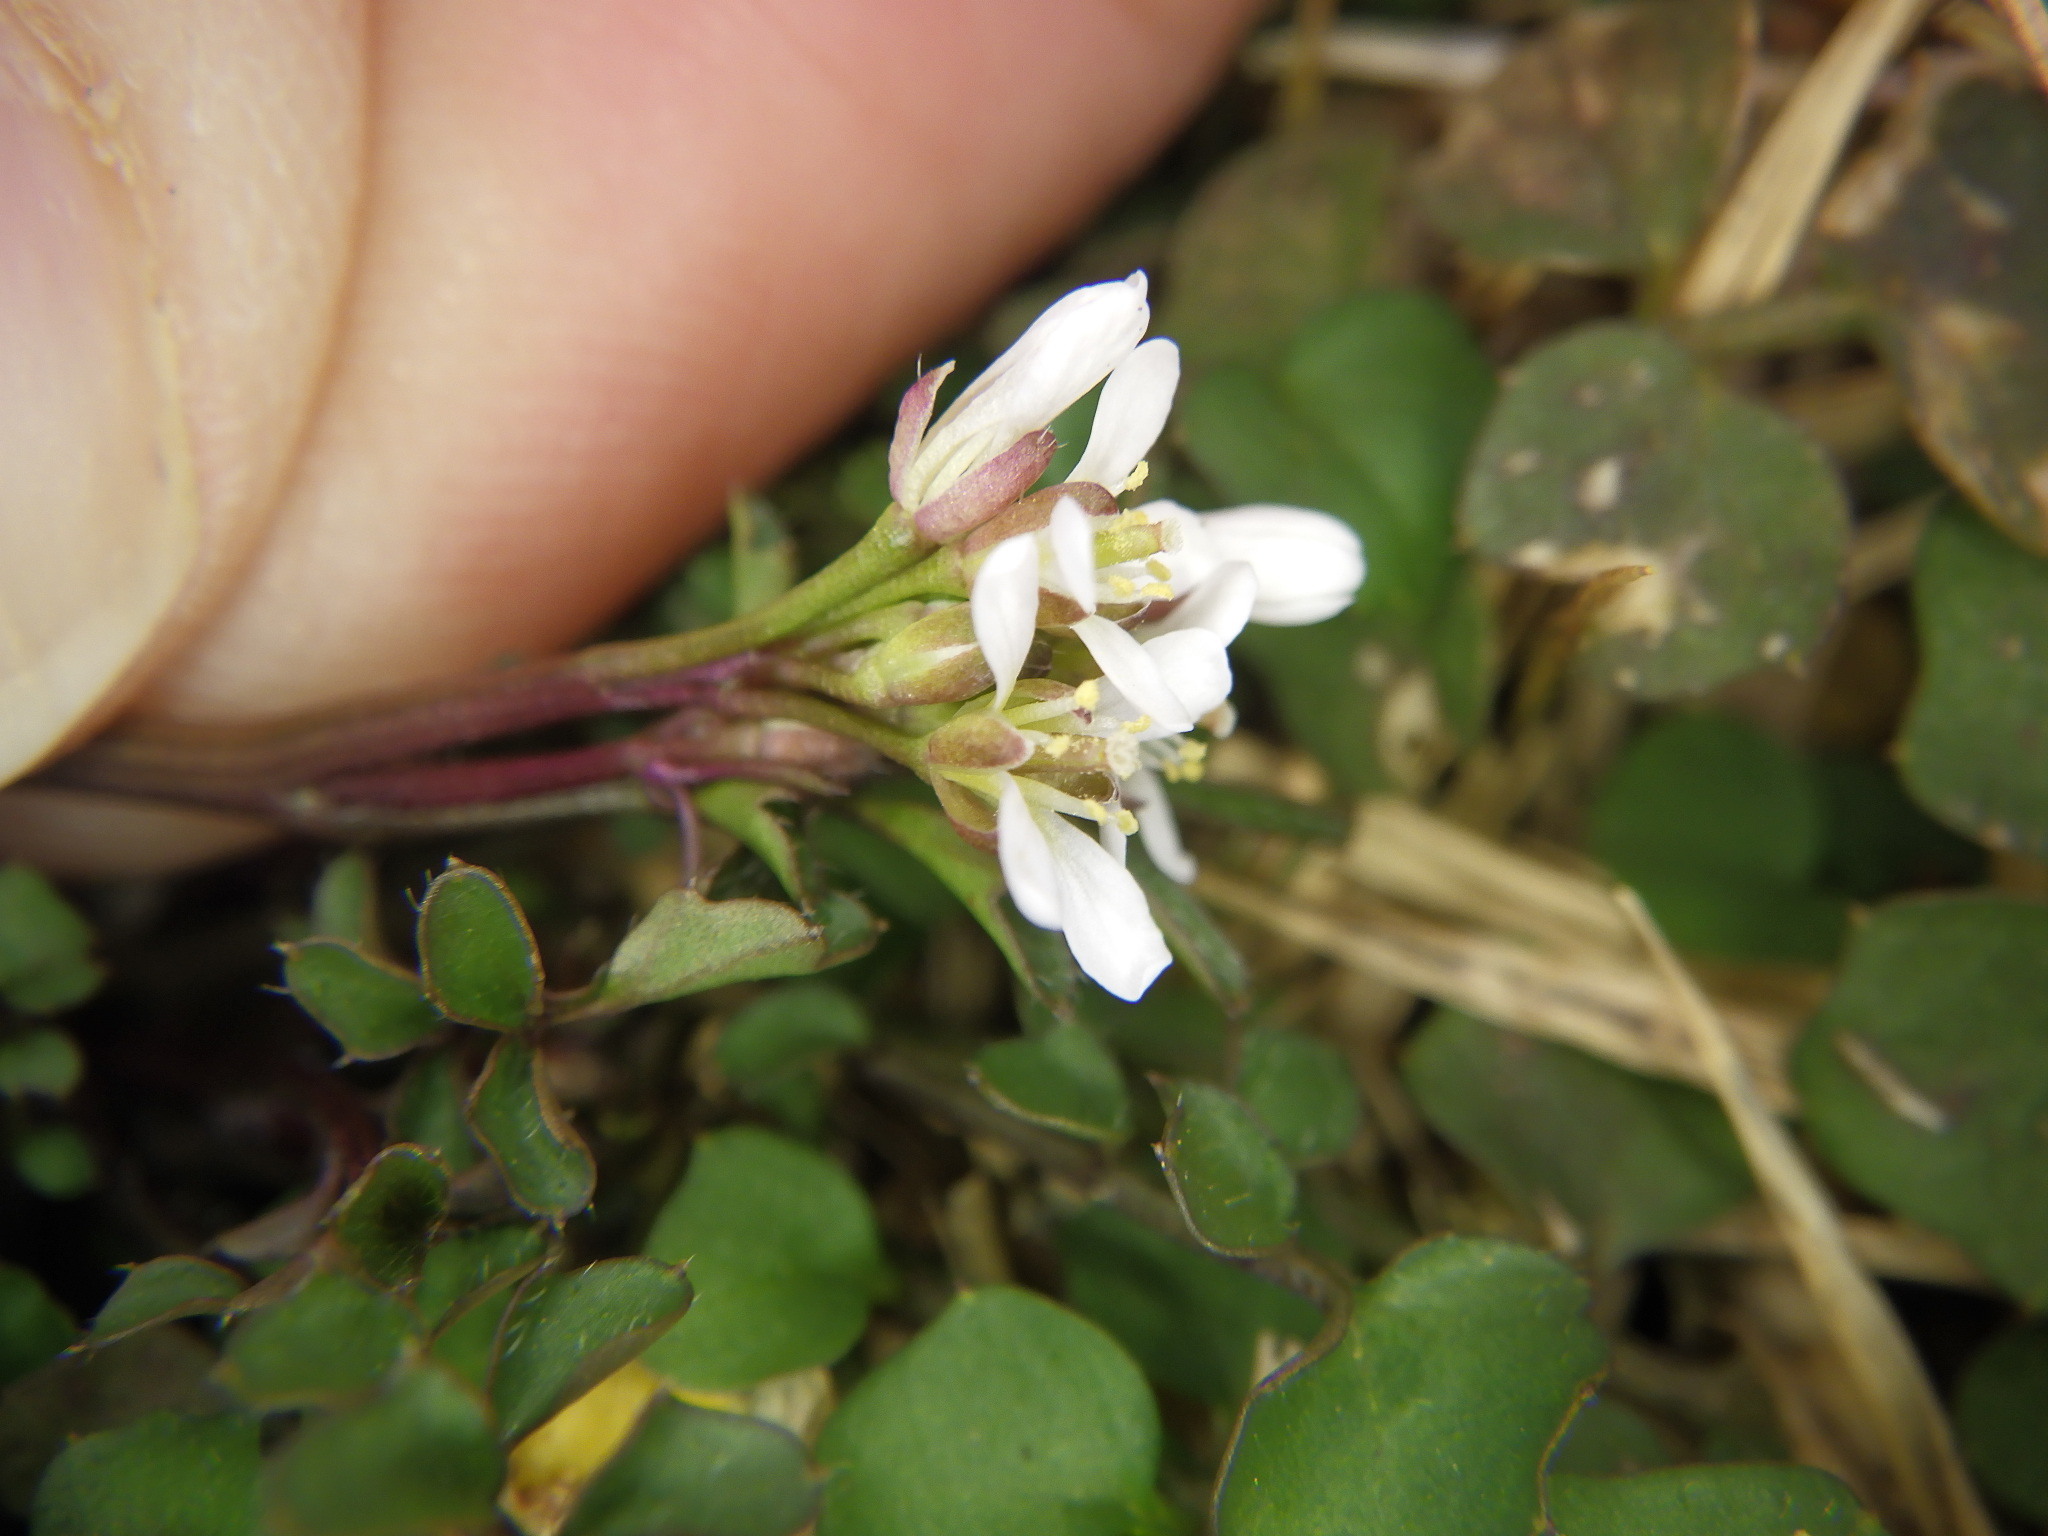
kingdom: Plantae
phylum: Tracheophyta
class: Magnoliopsida
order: Brassicales
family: Brassicaceae
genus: Cardamine
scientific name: Cardamine hirsuta
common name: Hairy bittercress
